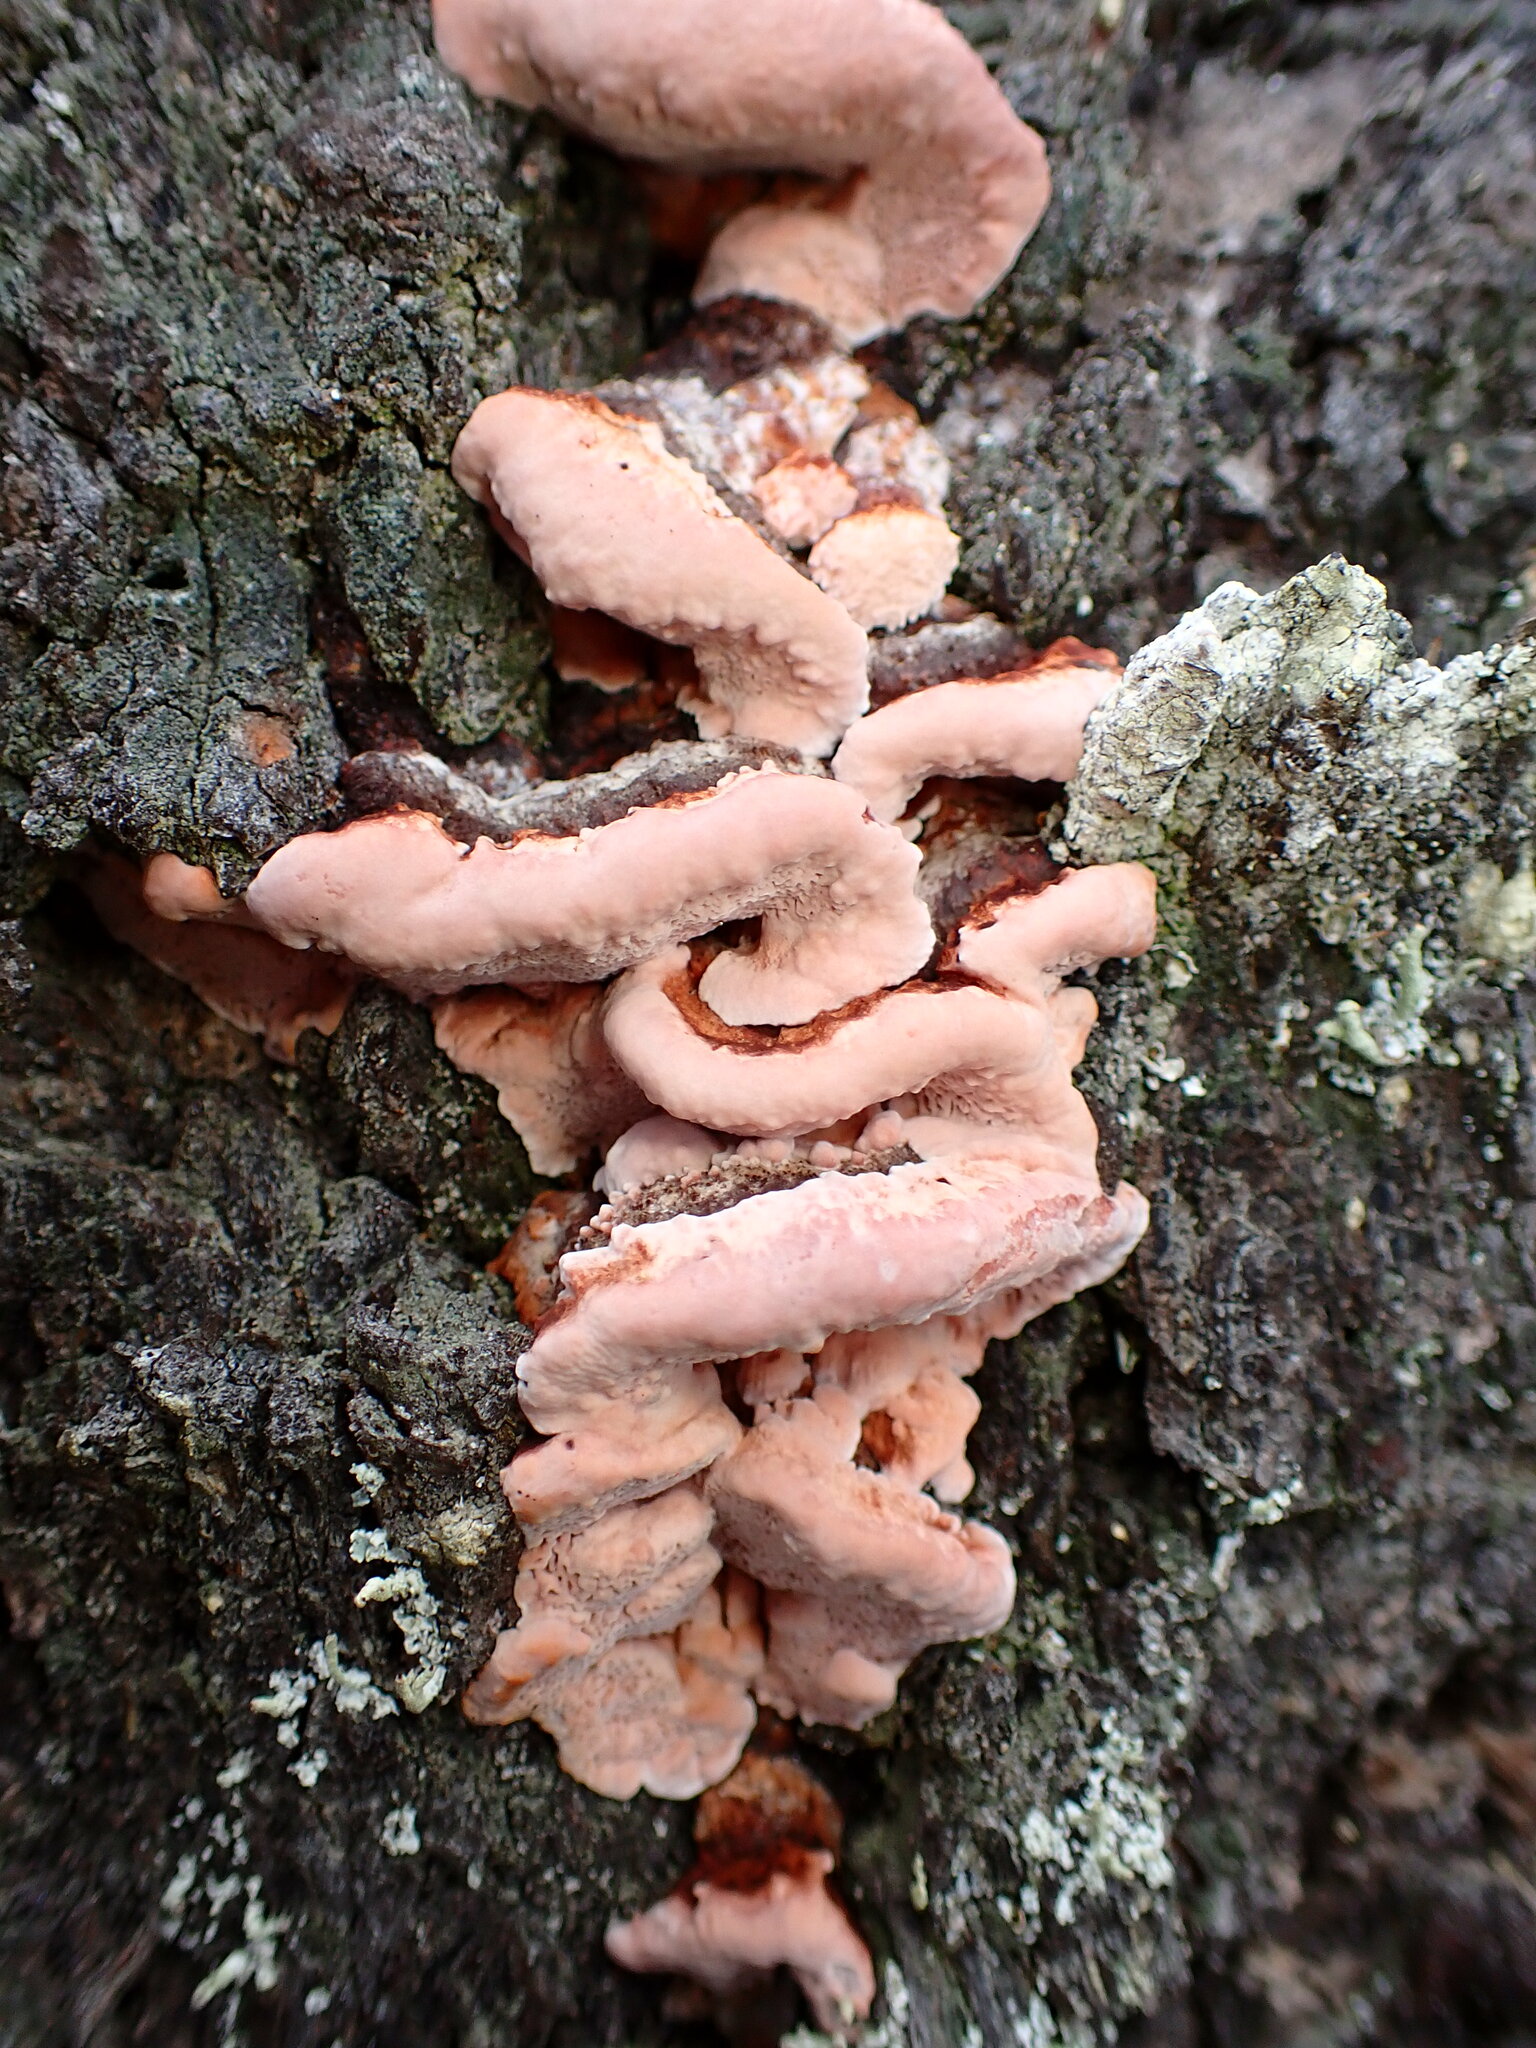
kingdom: Fungi
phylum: Basidiomycota
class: Agaricomycetes
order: Polyporales
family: Fomitopsidaceae
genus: Rhodofomes
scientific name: Rhodofomes cajanderi
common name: Rosy conk
